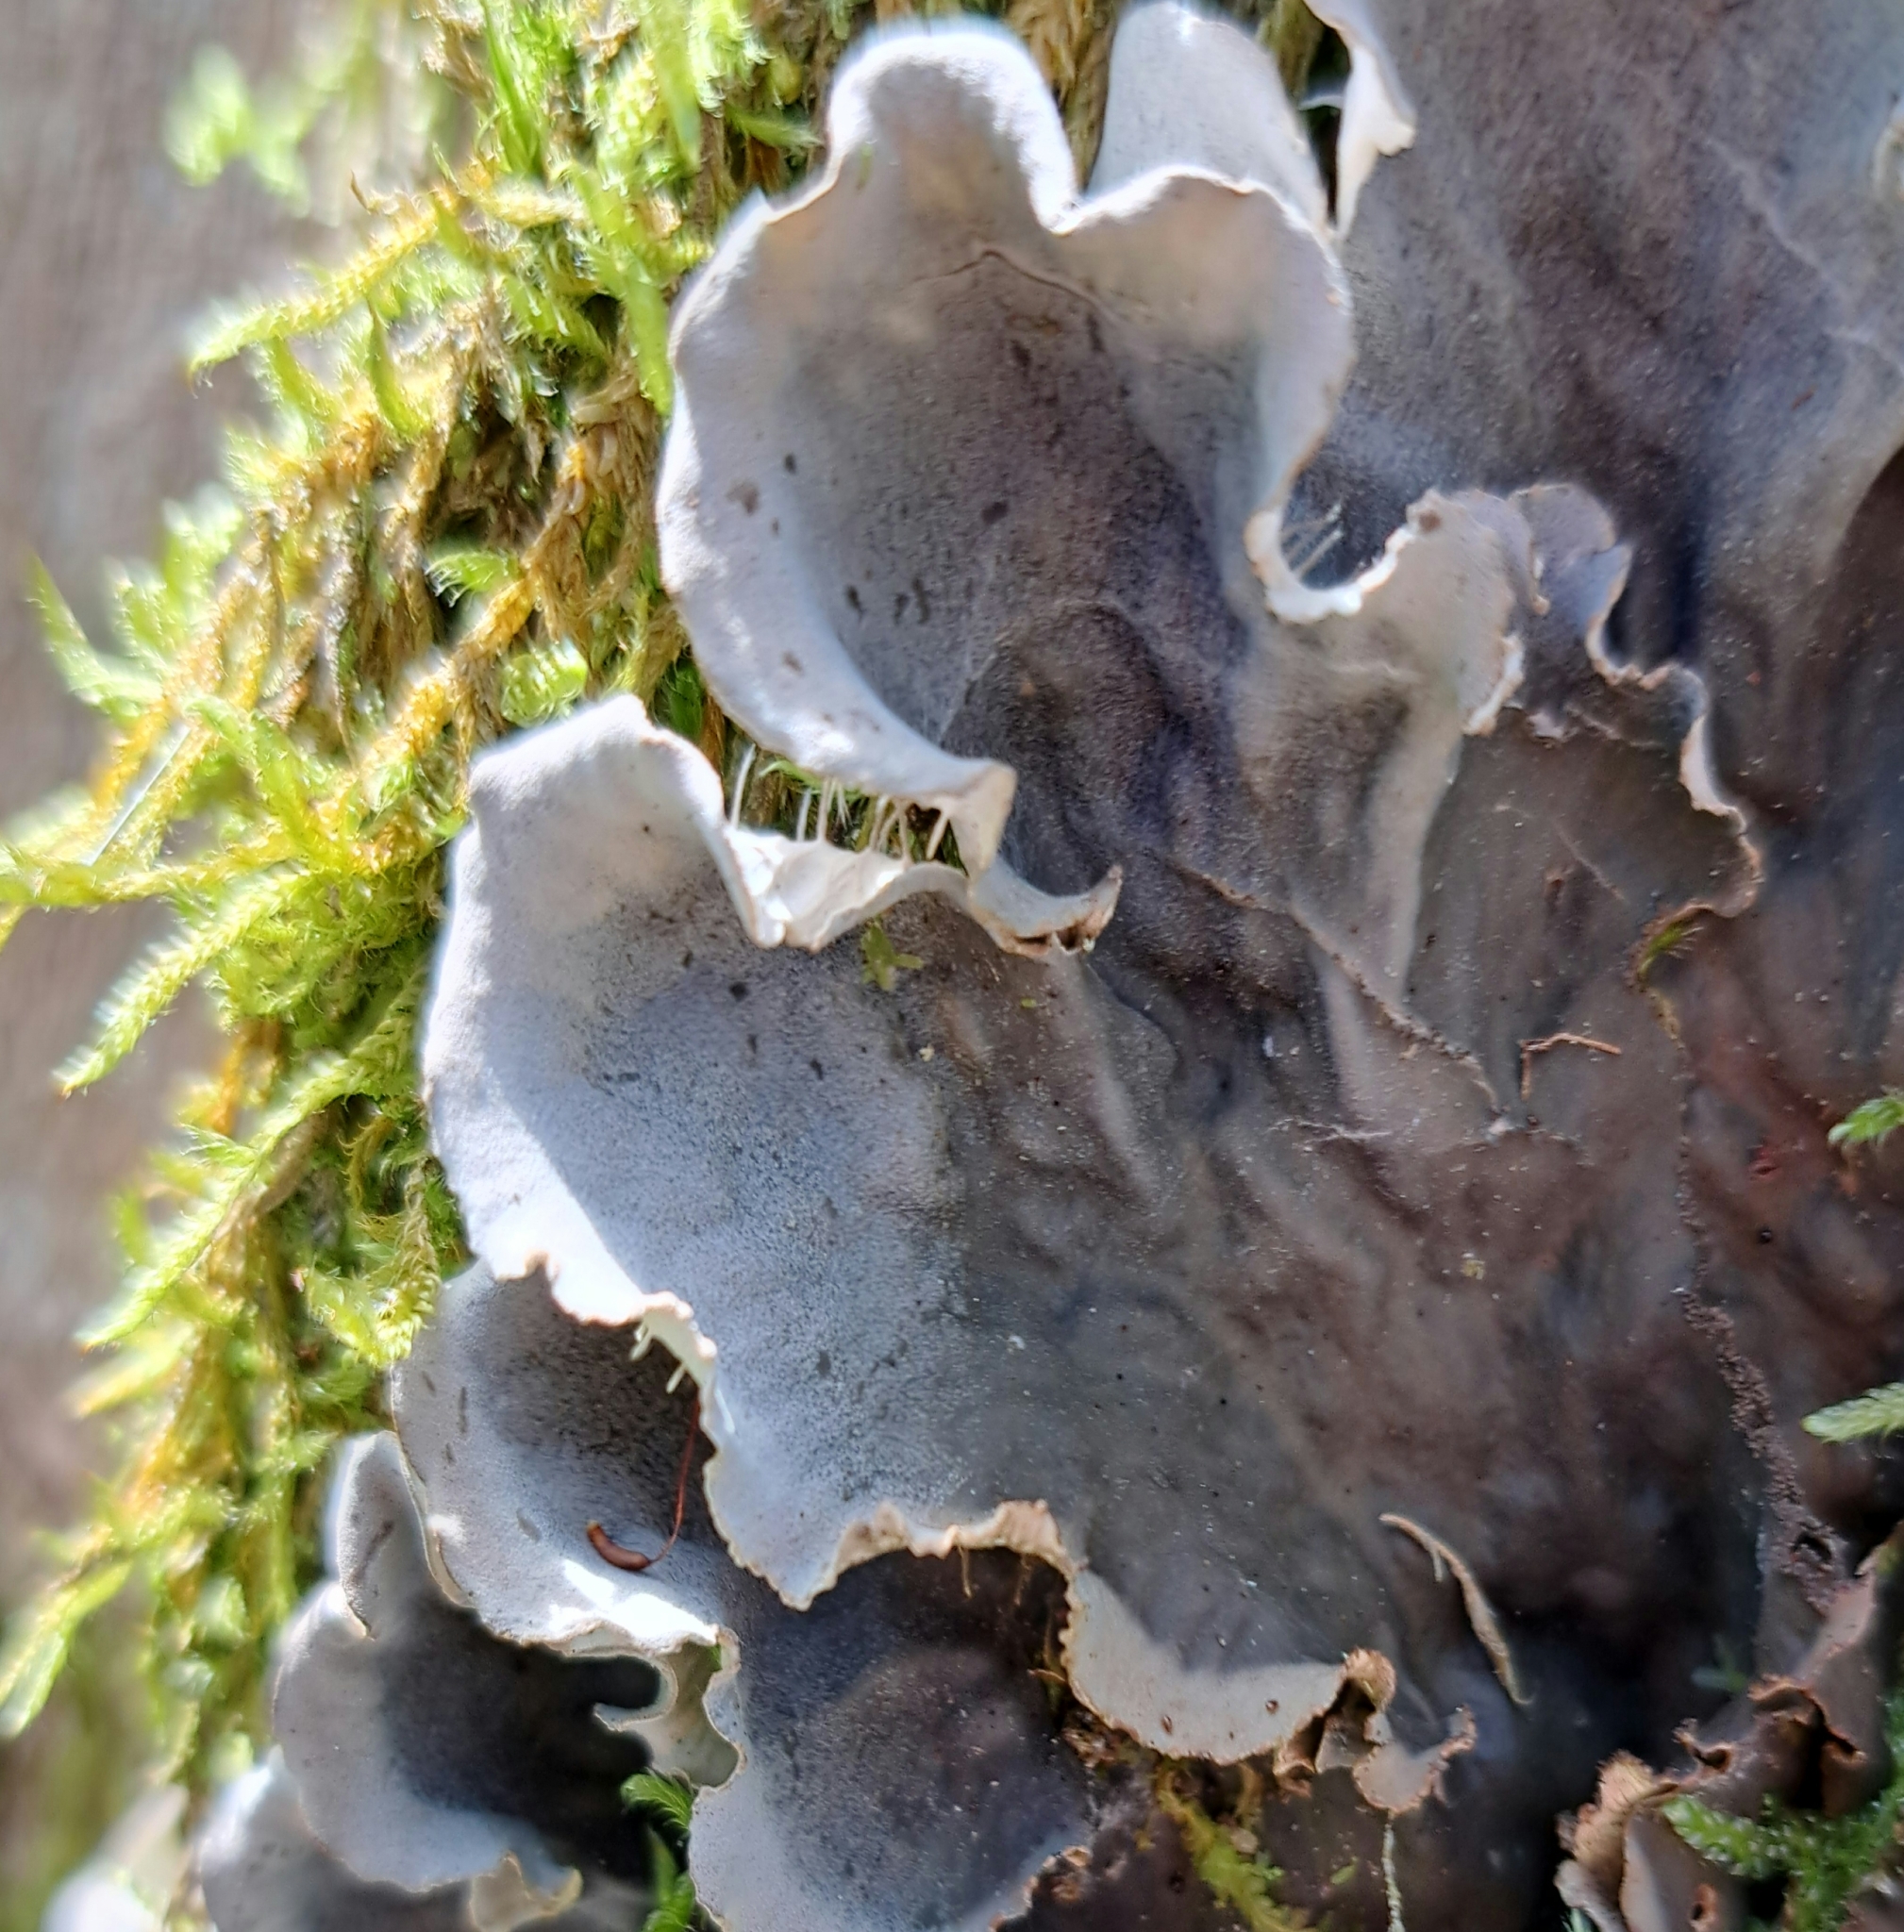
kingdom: Fungi
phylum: Ascomycota
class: Lecanoromycetes
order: Peltigerales
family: Peltigeraceae
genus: Peltigera
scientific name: Peltigera praetextata
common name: Scaly dog-lichen
